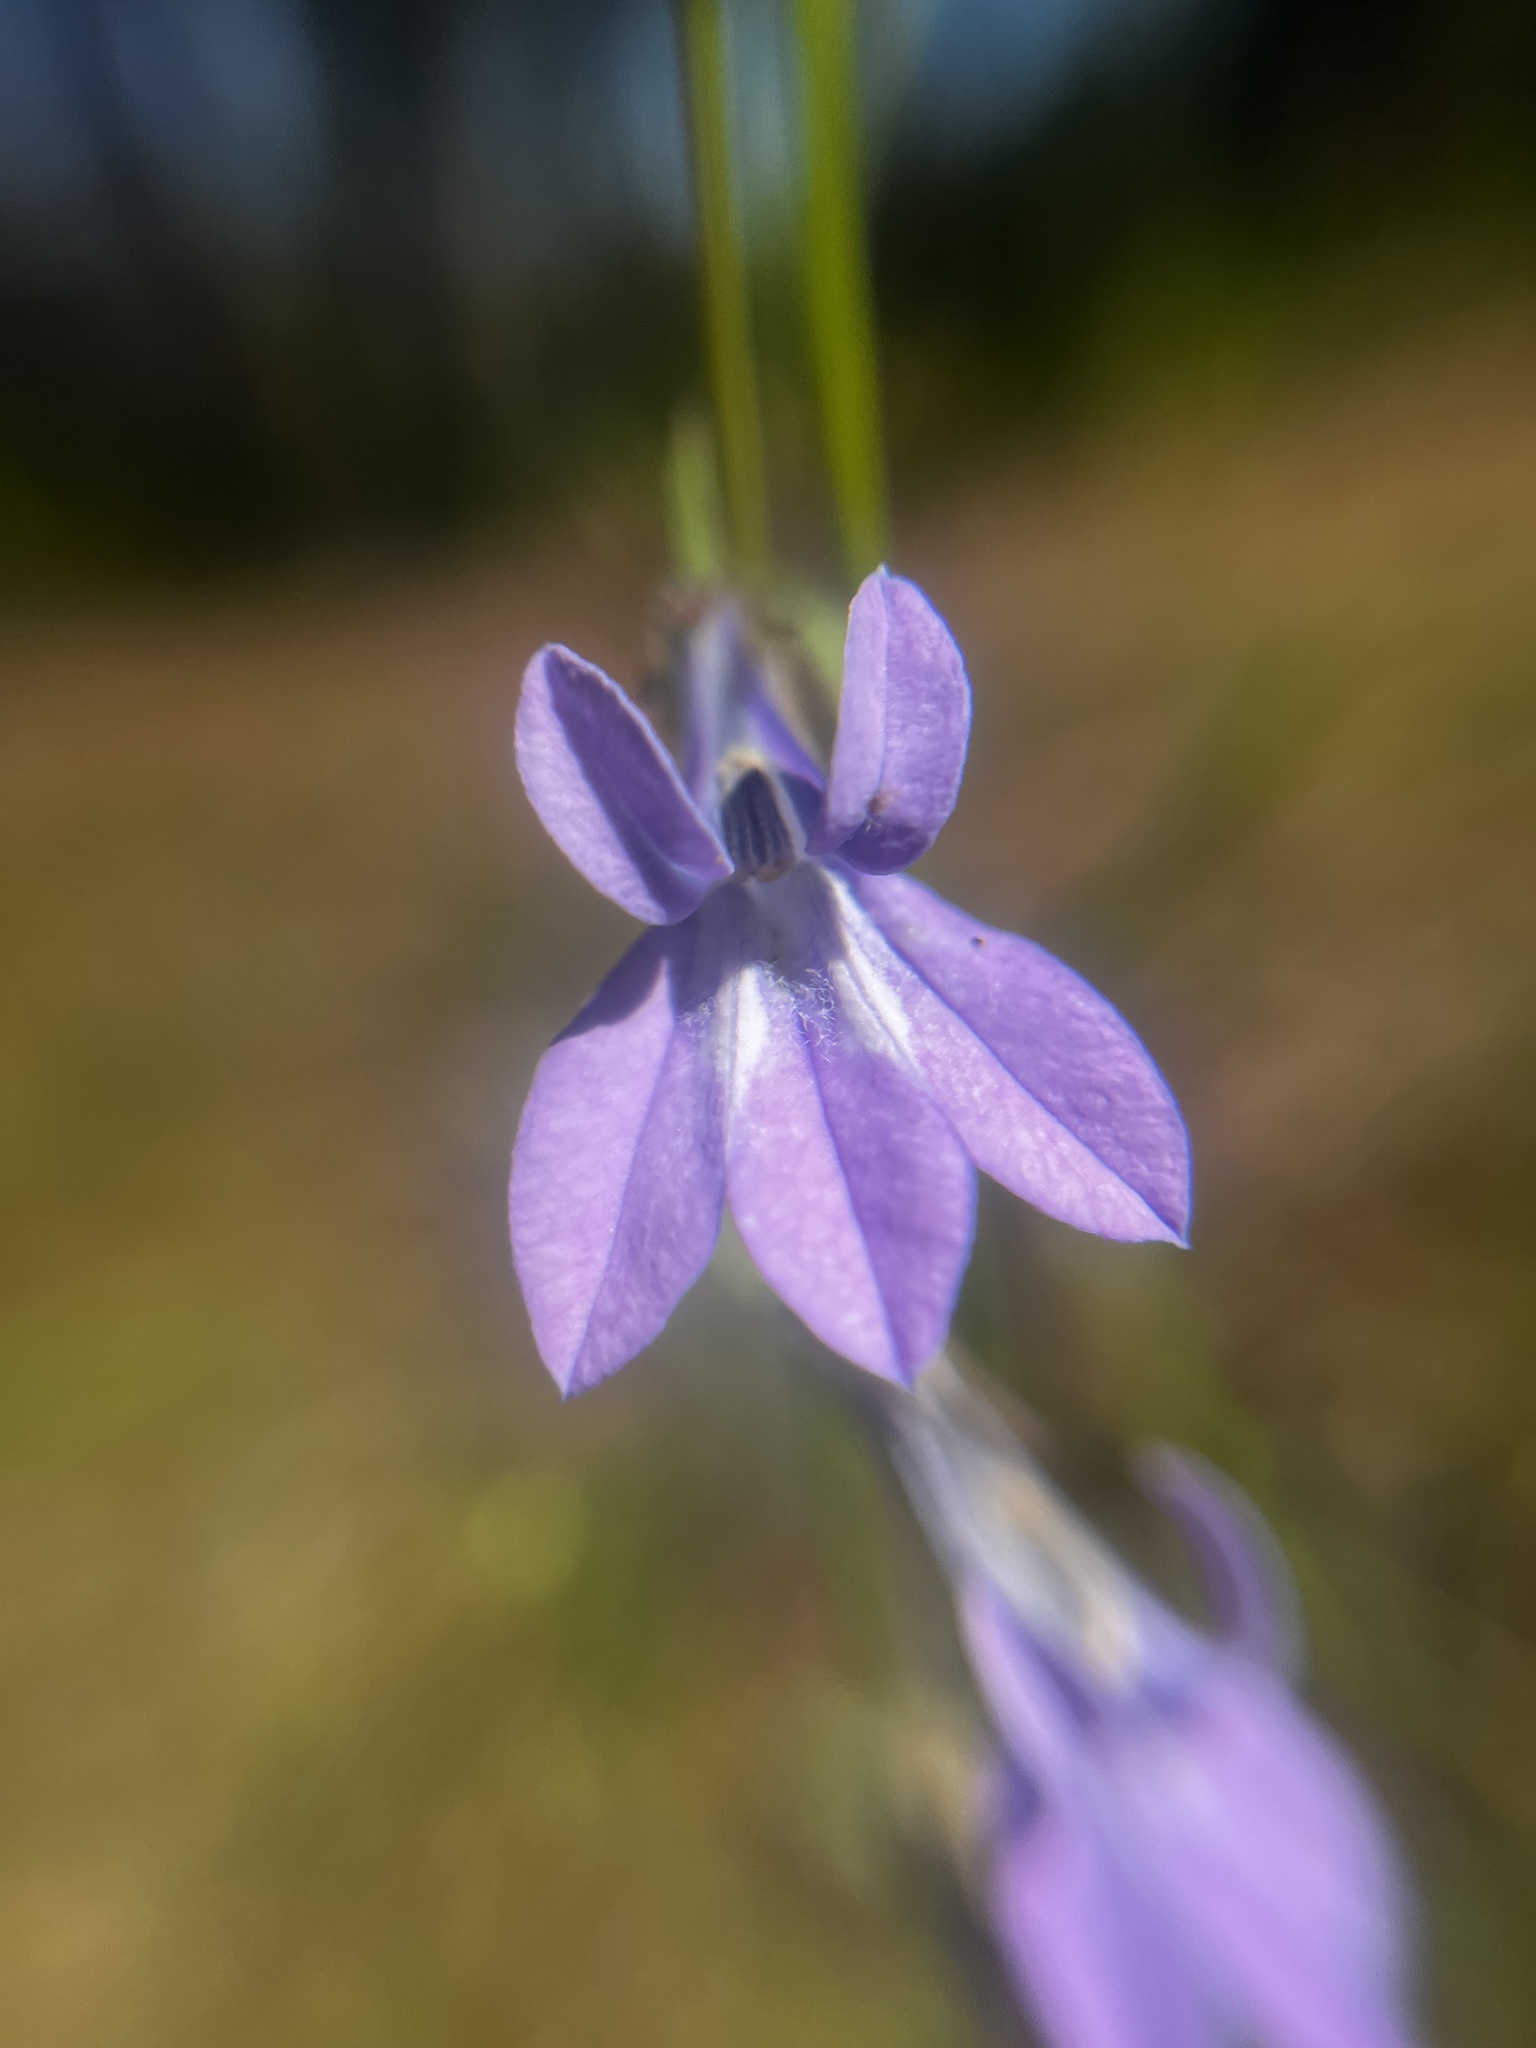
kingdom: Plantae
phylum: Tracheophyta
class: Magnoliopsida
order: Asterales
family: Campanulaceae
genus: Lobelia
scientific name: Lobelia glandulosa
